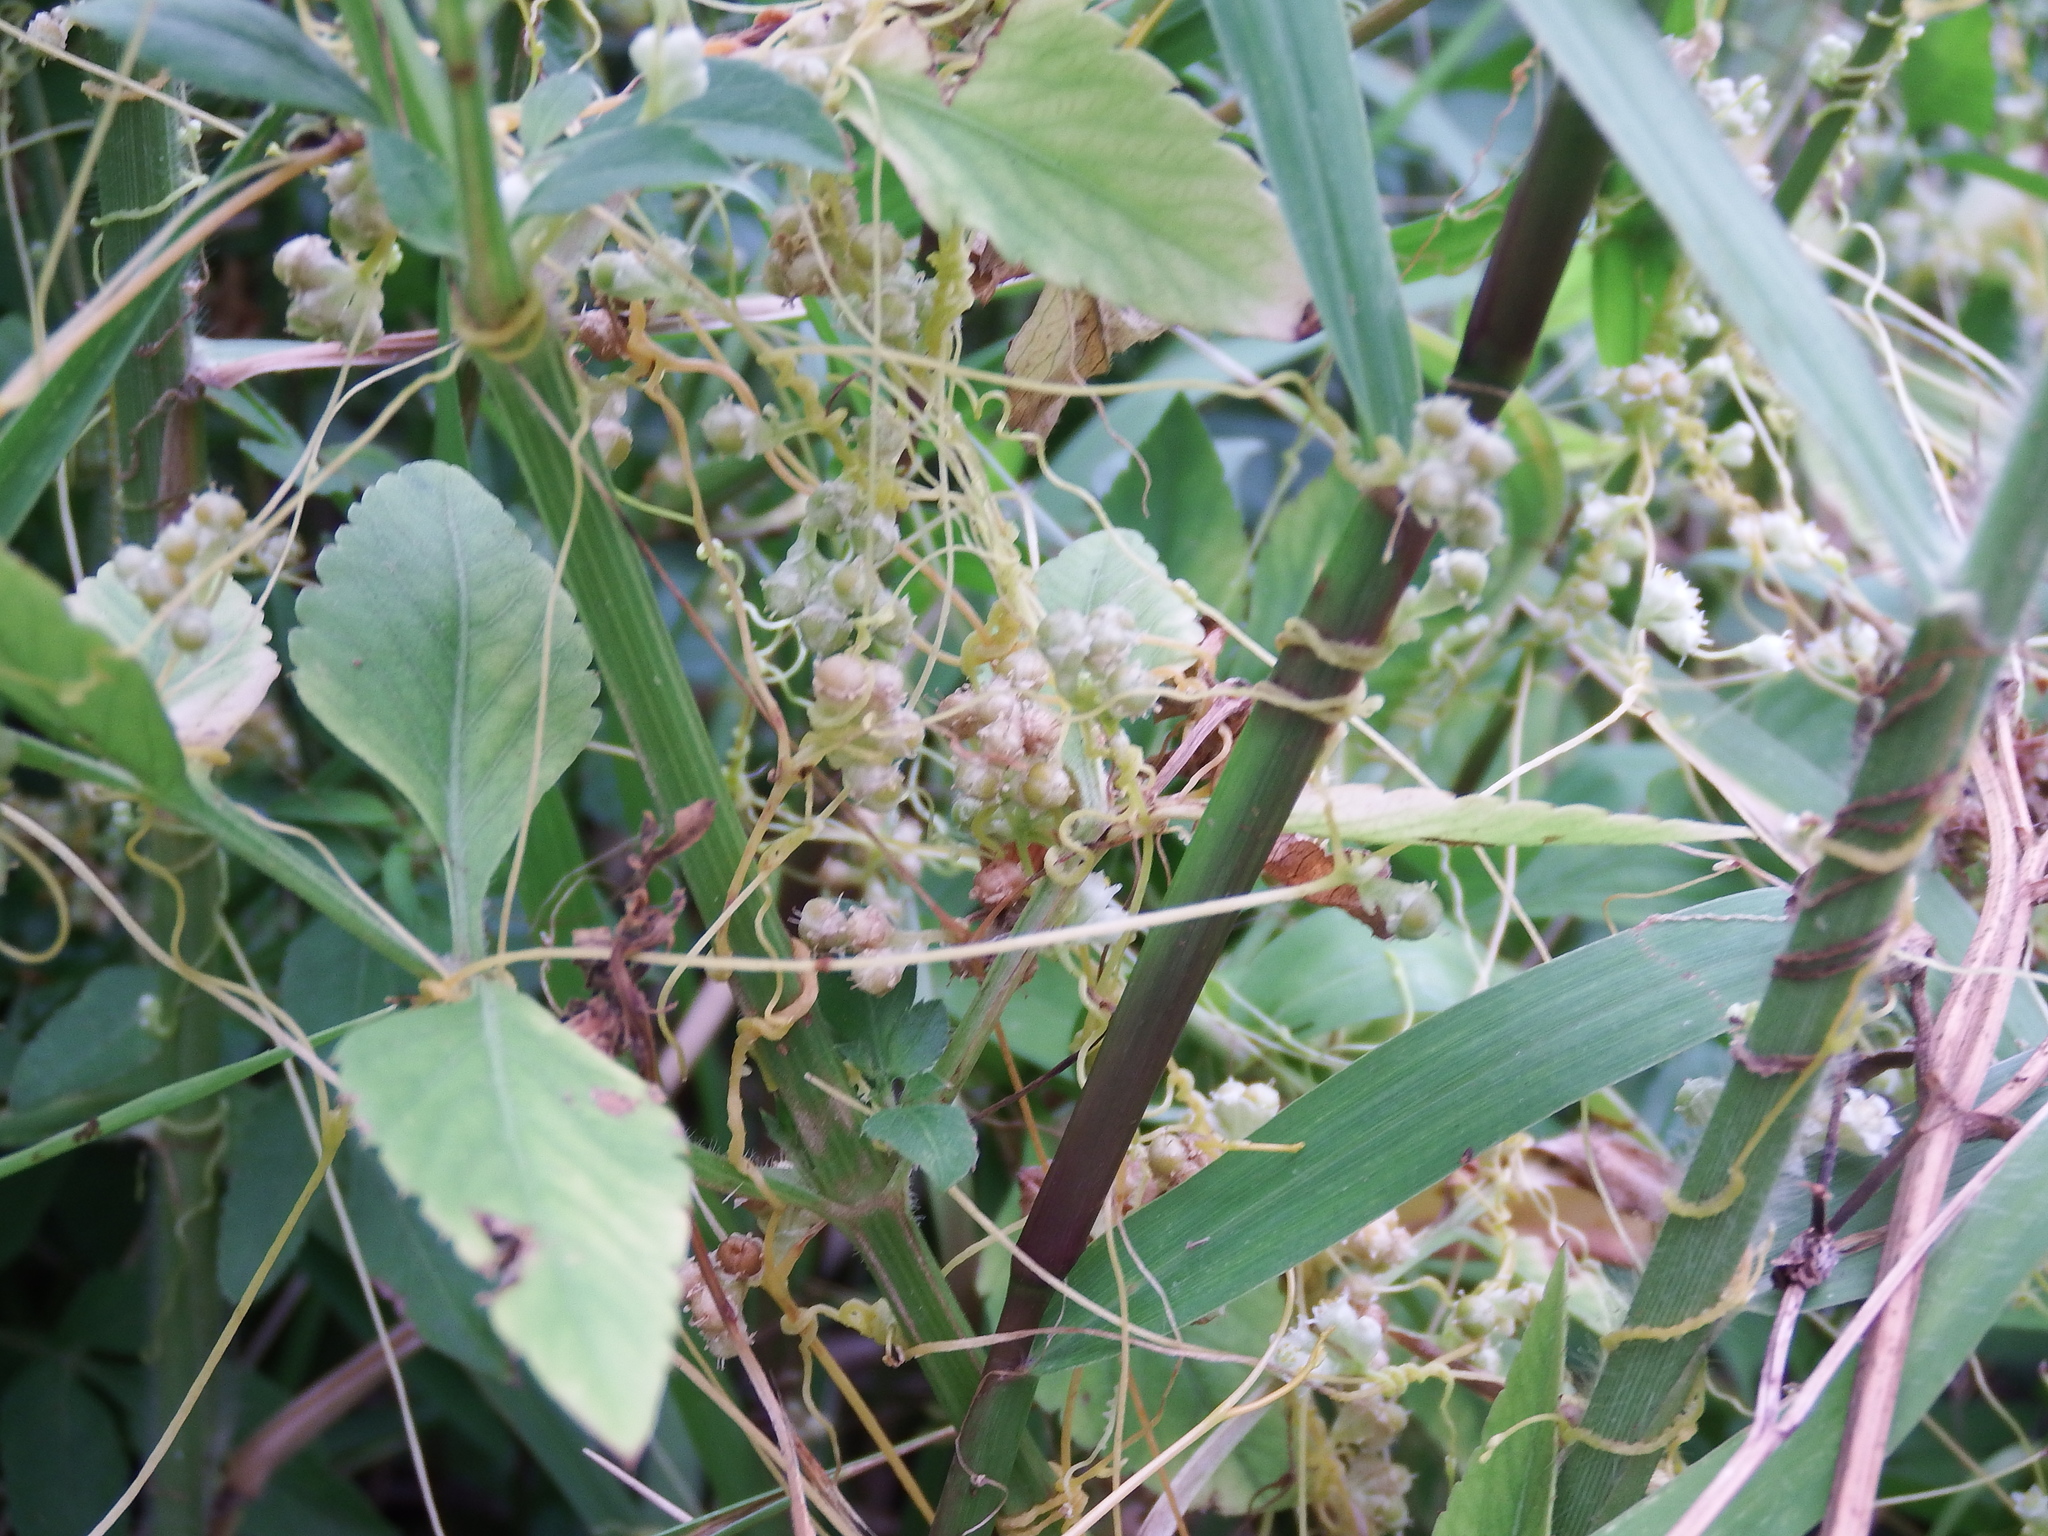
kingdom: Plantae
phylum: Tracheophyta
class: Magnoliopsida
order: Solanales
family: Convolvulaceae
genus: Cuscuta
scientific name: Cuscuta campestris
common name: Yellow dodder
